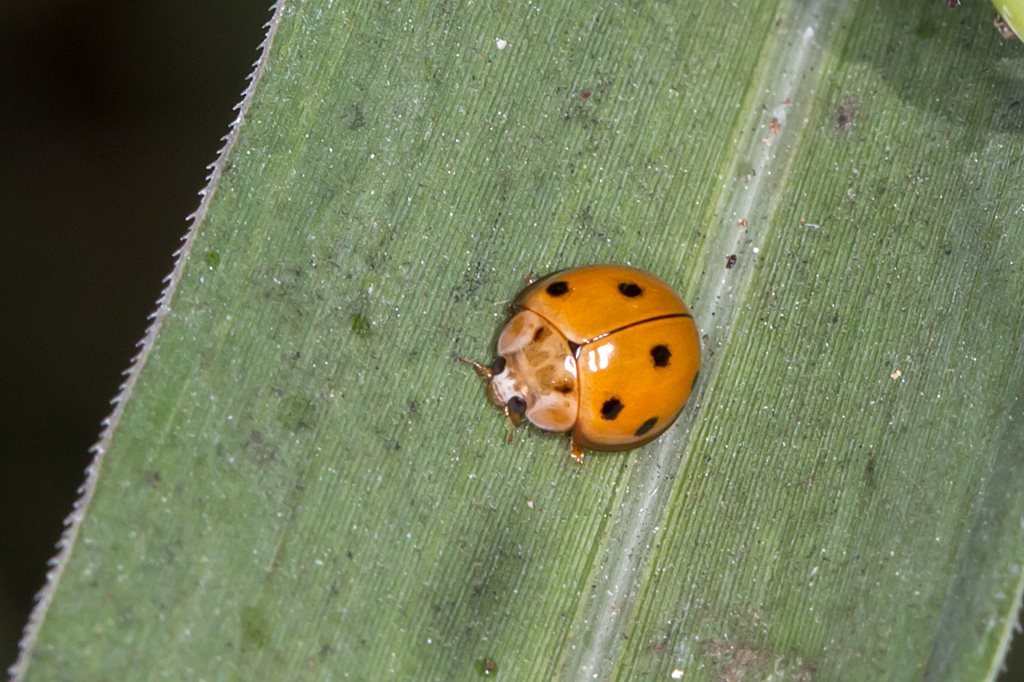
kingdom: Animalia
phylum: Arthropoda
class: Insecta
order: Coleoptera
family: Coccinellidae
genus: Coelophora
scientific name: Coelophora inaequalis
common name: Common australian lady beetle
